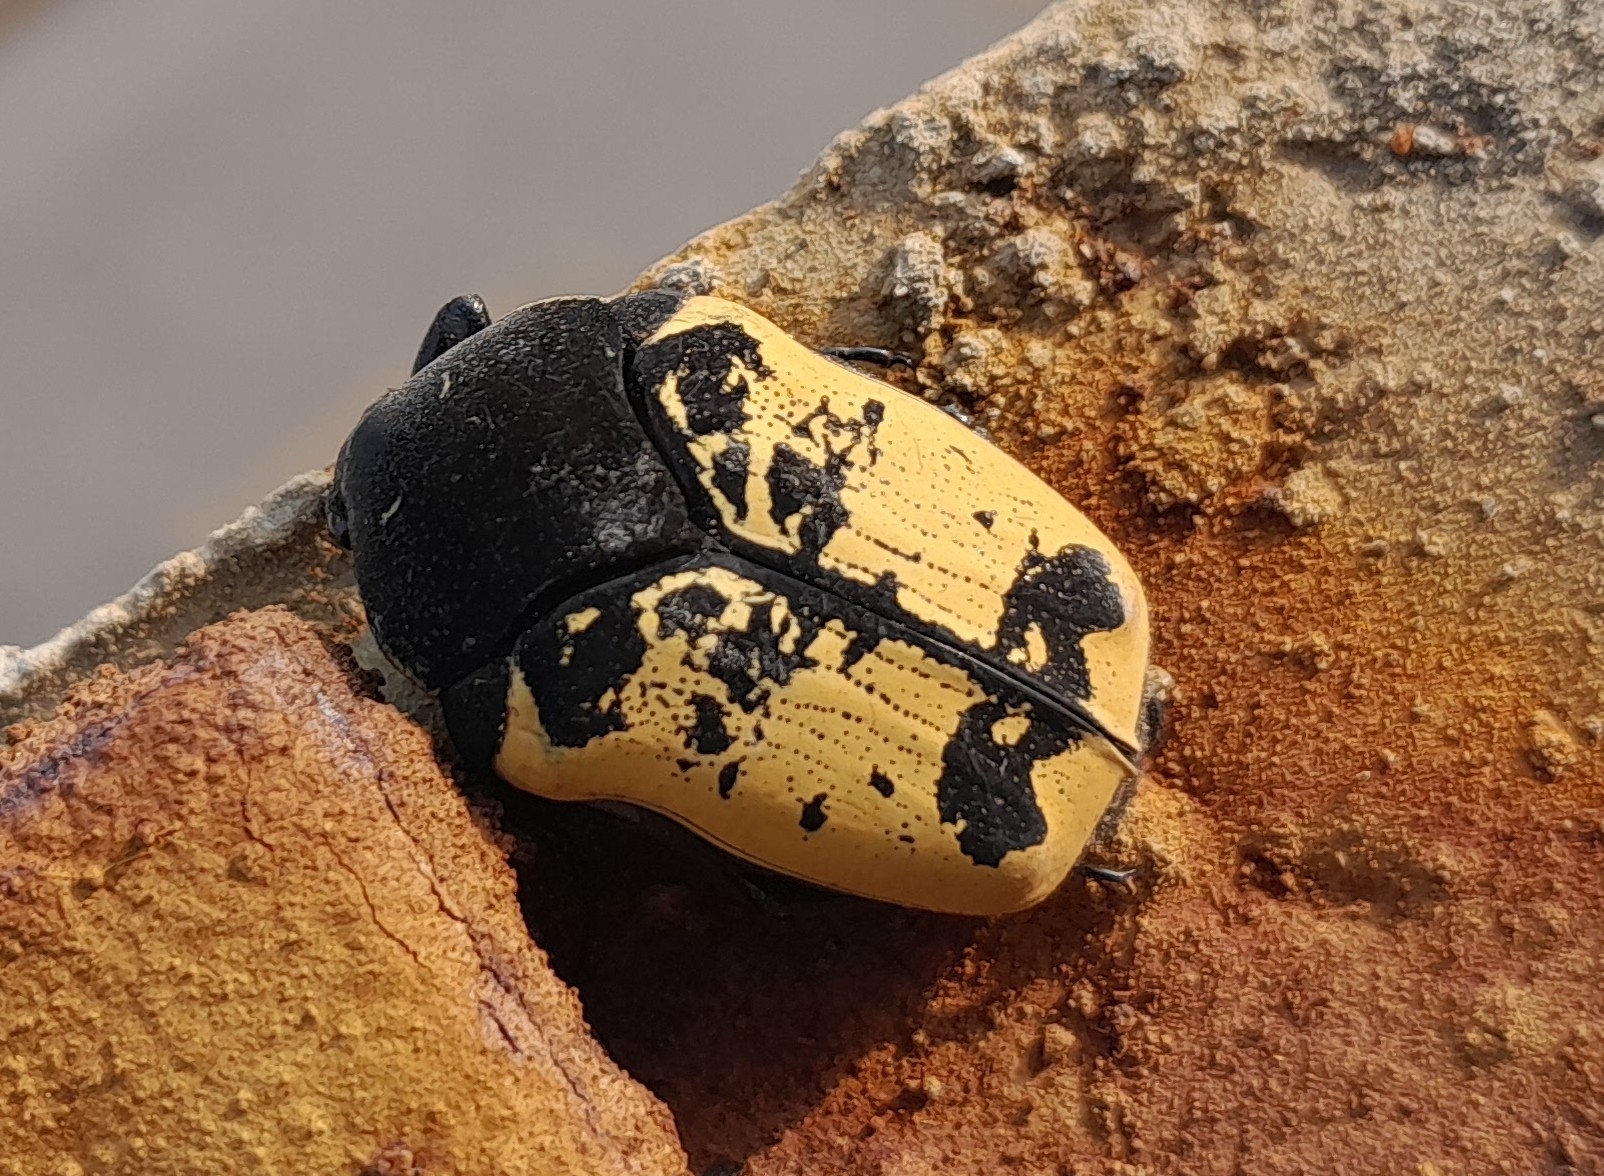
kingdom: Animalia
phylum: Arthropoda
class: Insecta
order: Coleoptera
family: Scarabaeidae
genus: Gymnetis
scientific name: Gymnetis merops
